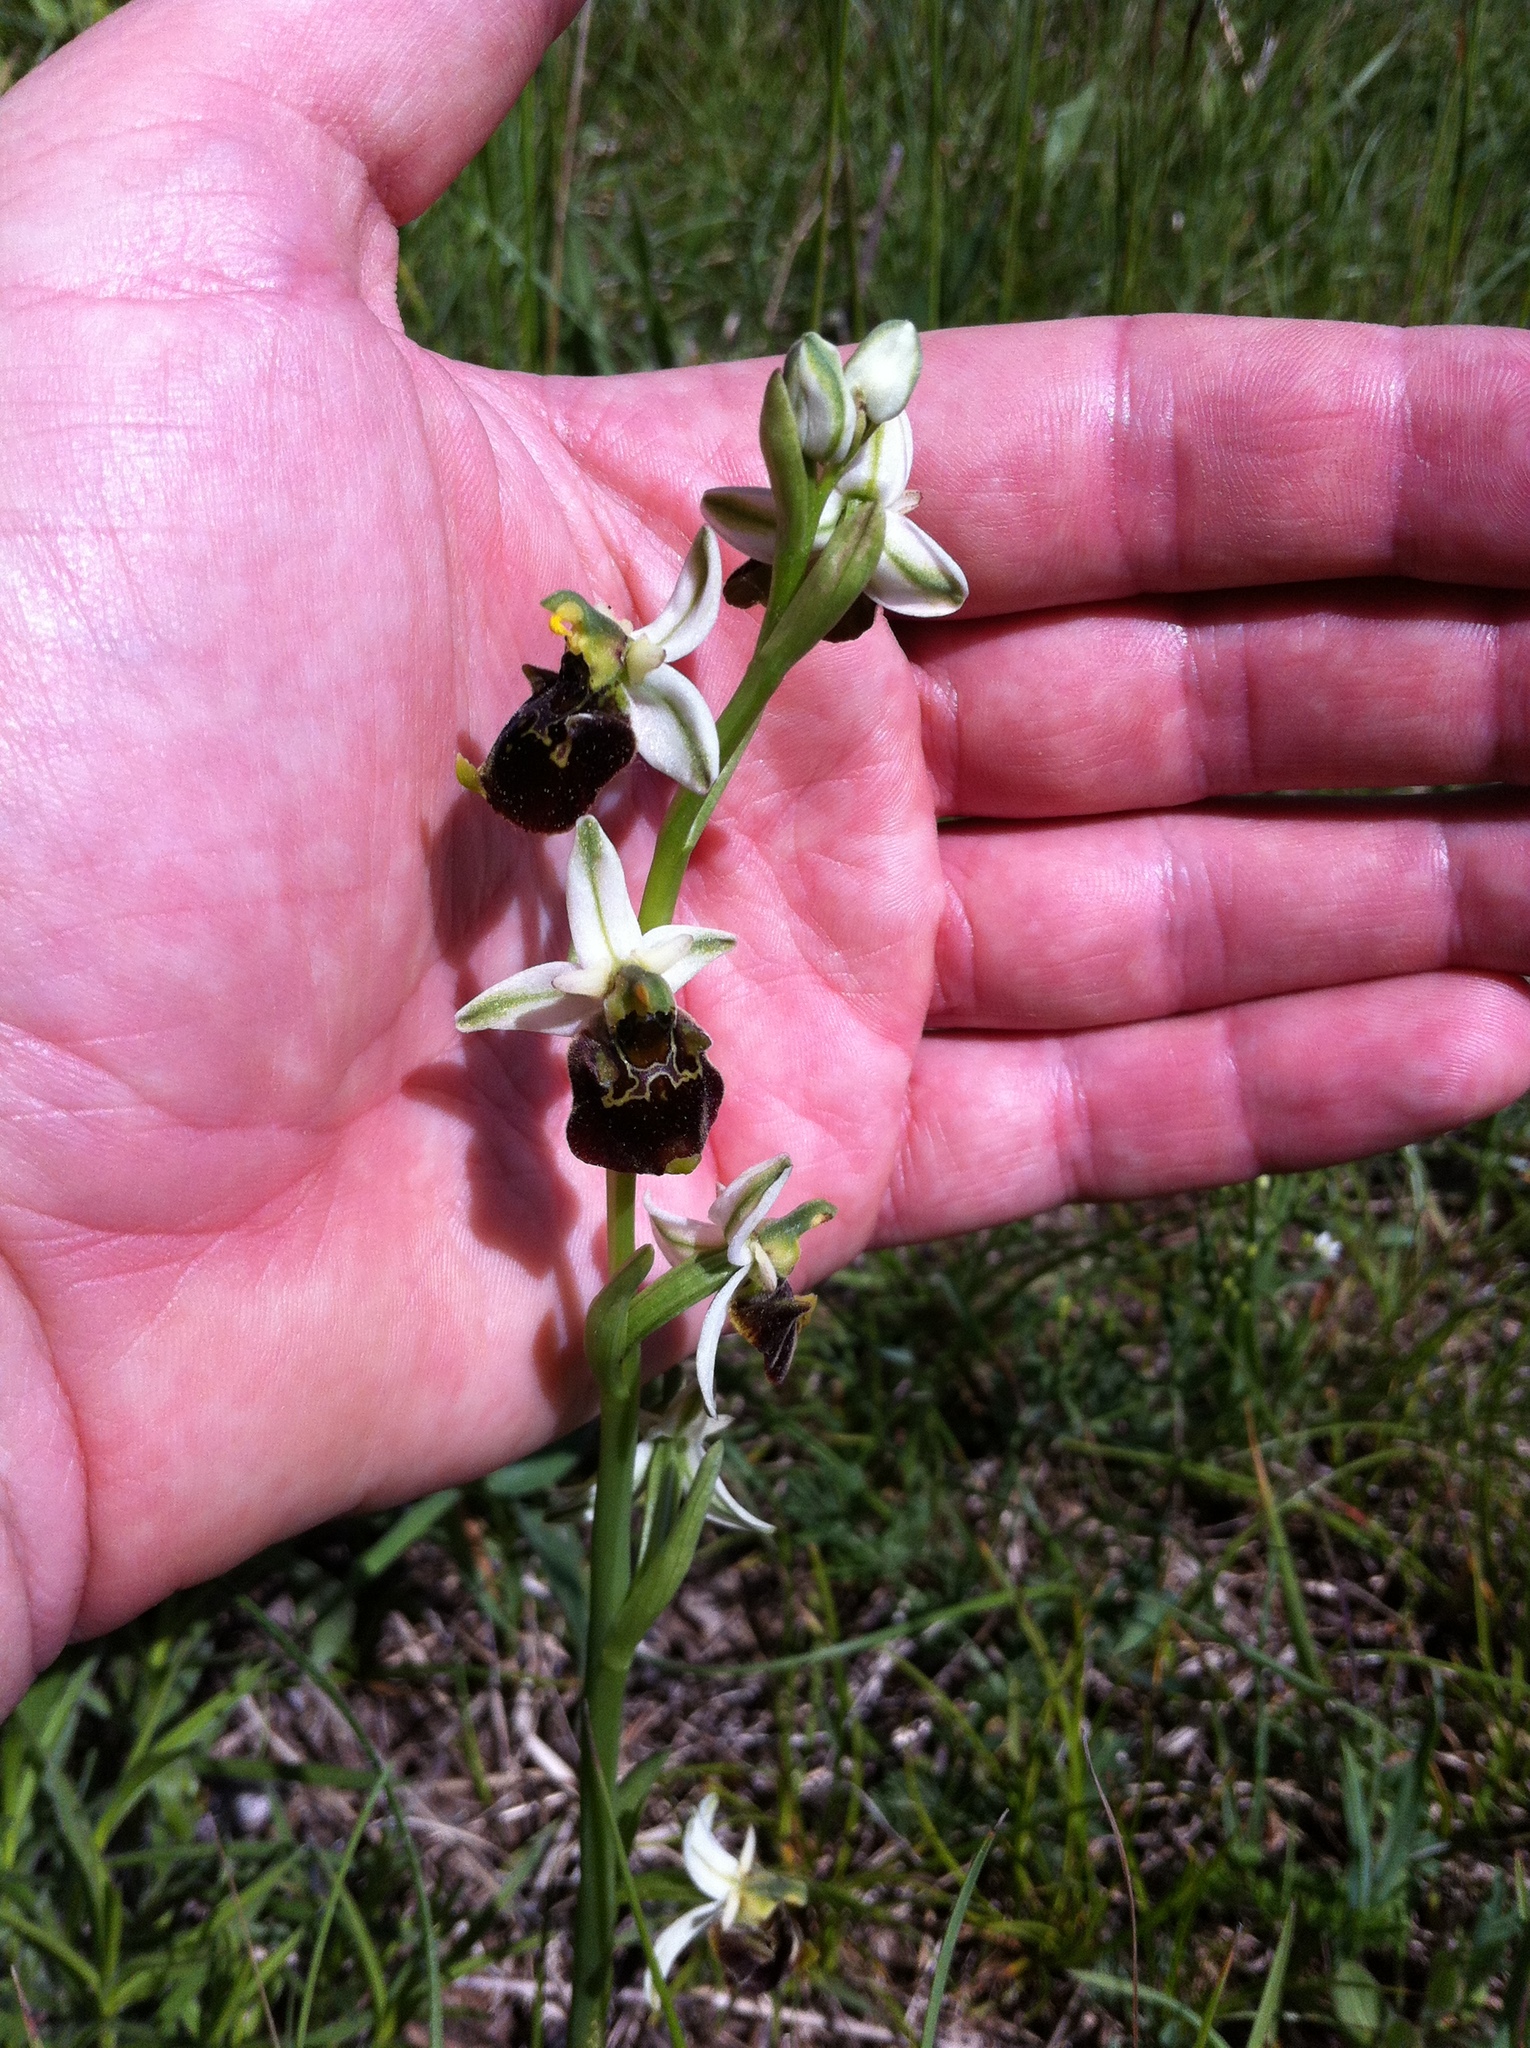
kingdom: Plantae
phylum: Tracheophyta
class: Liliopsida
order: Asparagales
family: Orchidaceae
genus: Ophrys
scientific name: Ophrys holosericea
